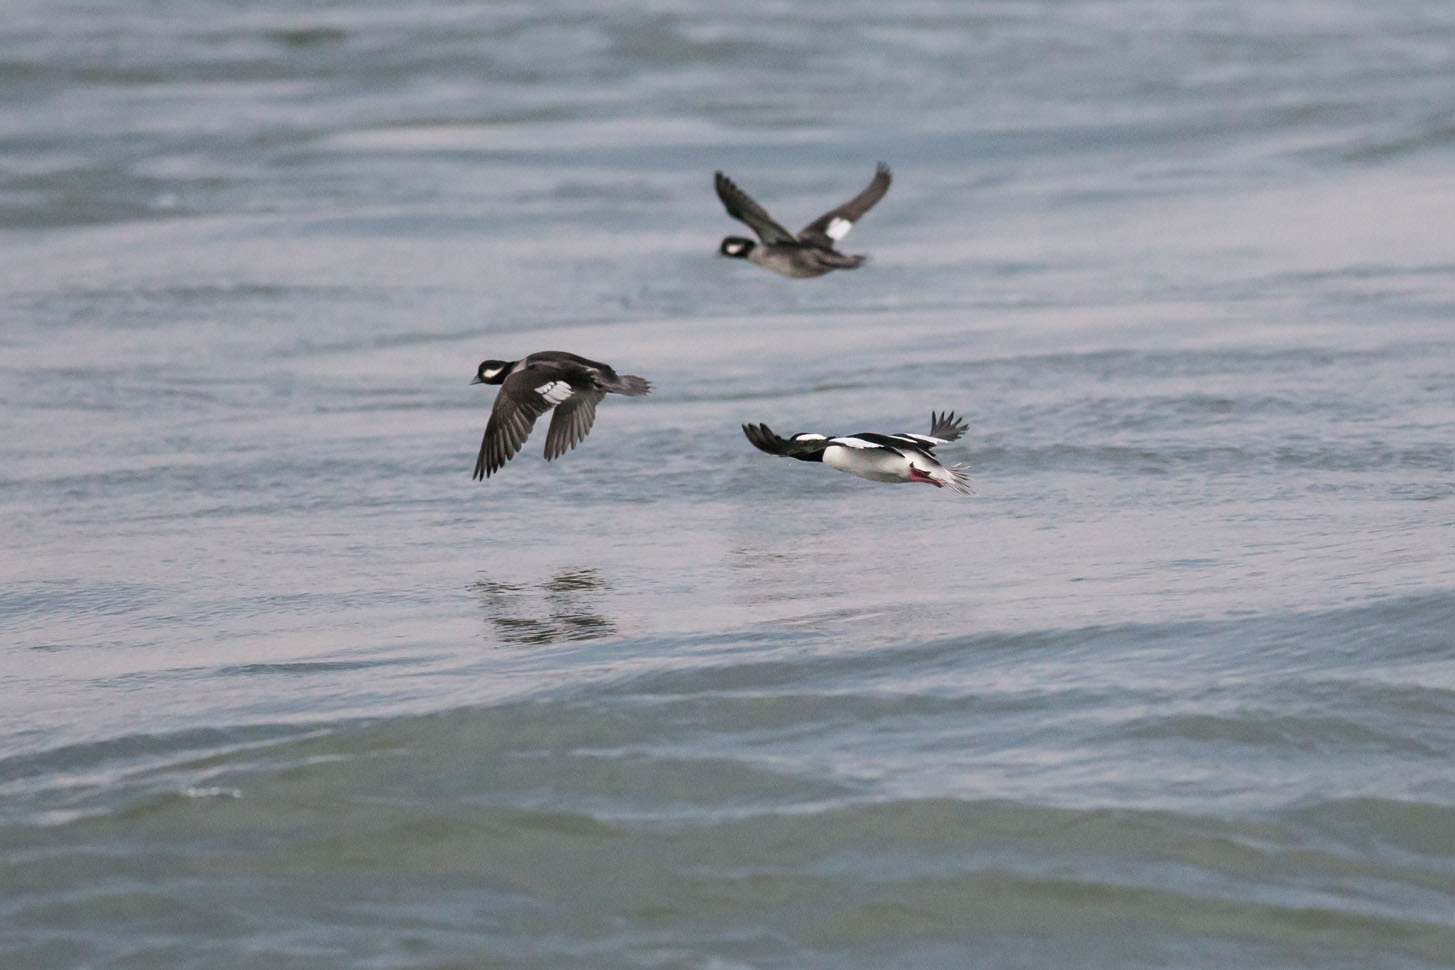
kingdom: Animalia
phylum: Chordata
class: Aves
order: Anseriformes
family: Anatidae
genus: Bucephala
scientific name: Bucephala albeola
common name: Bufflehead
